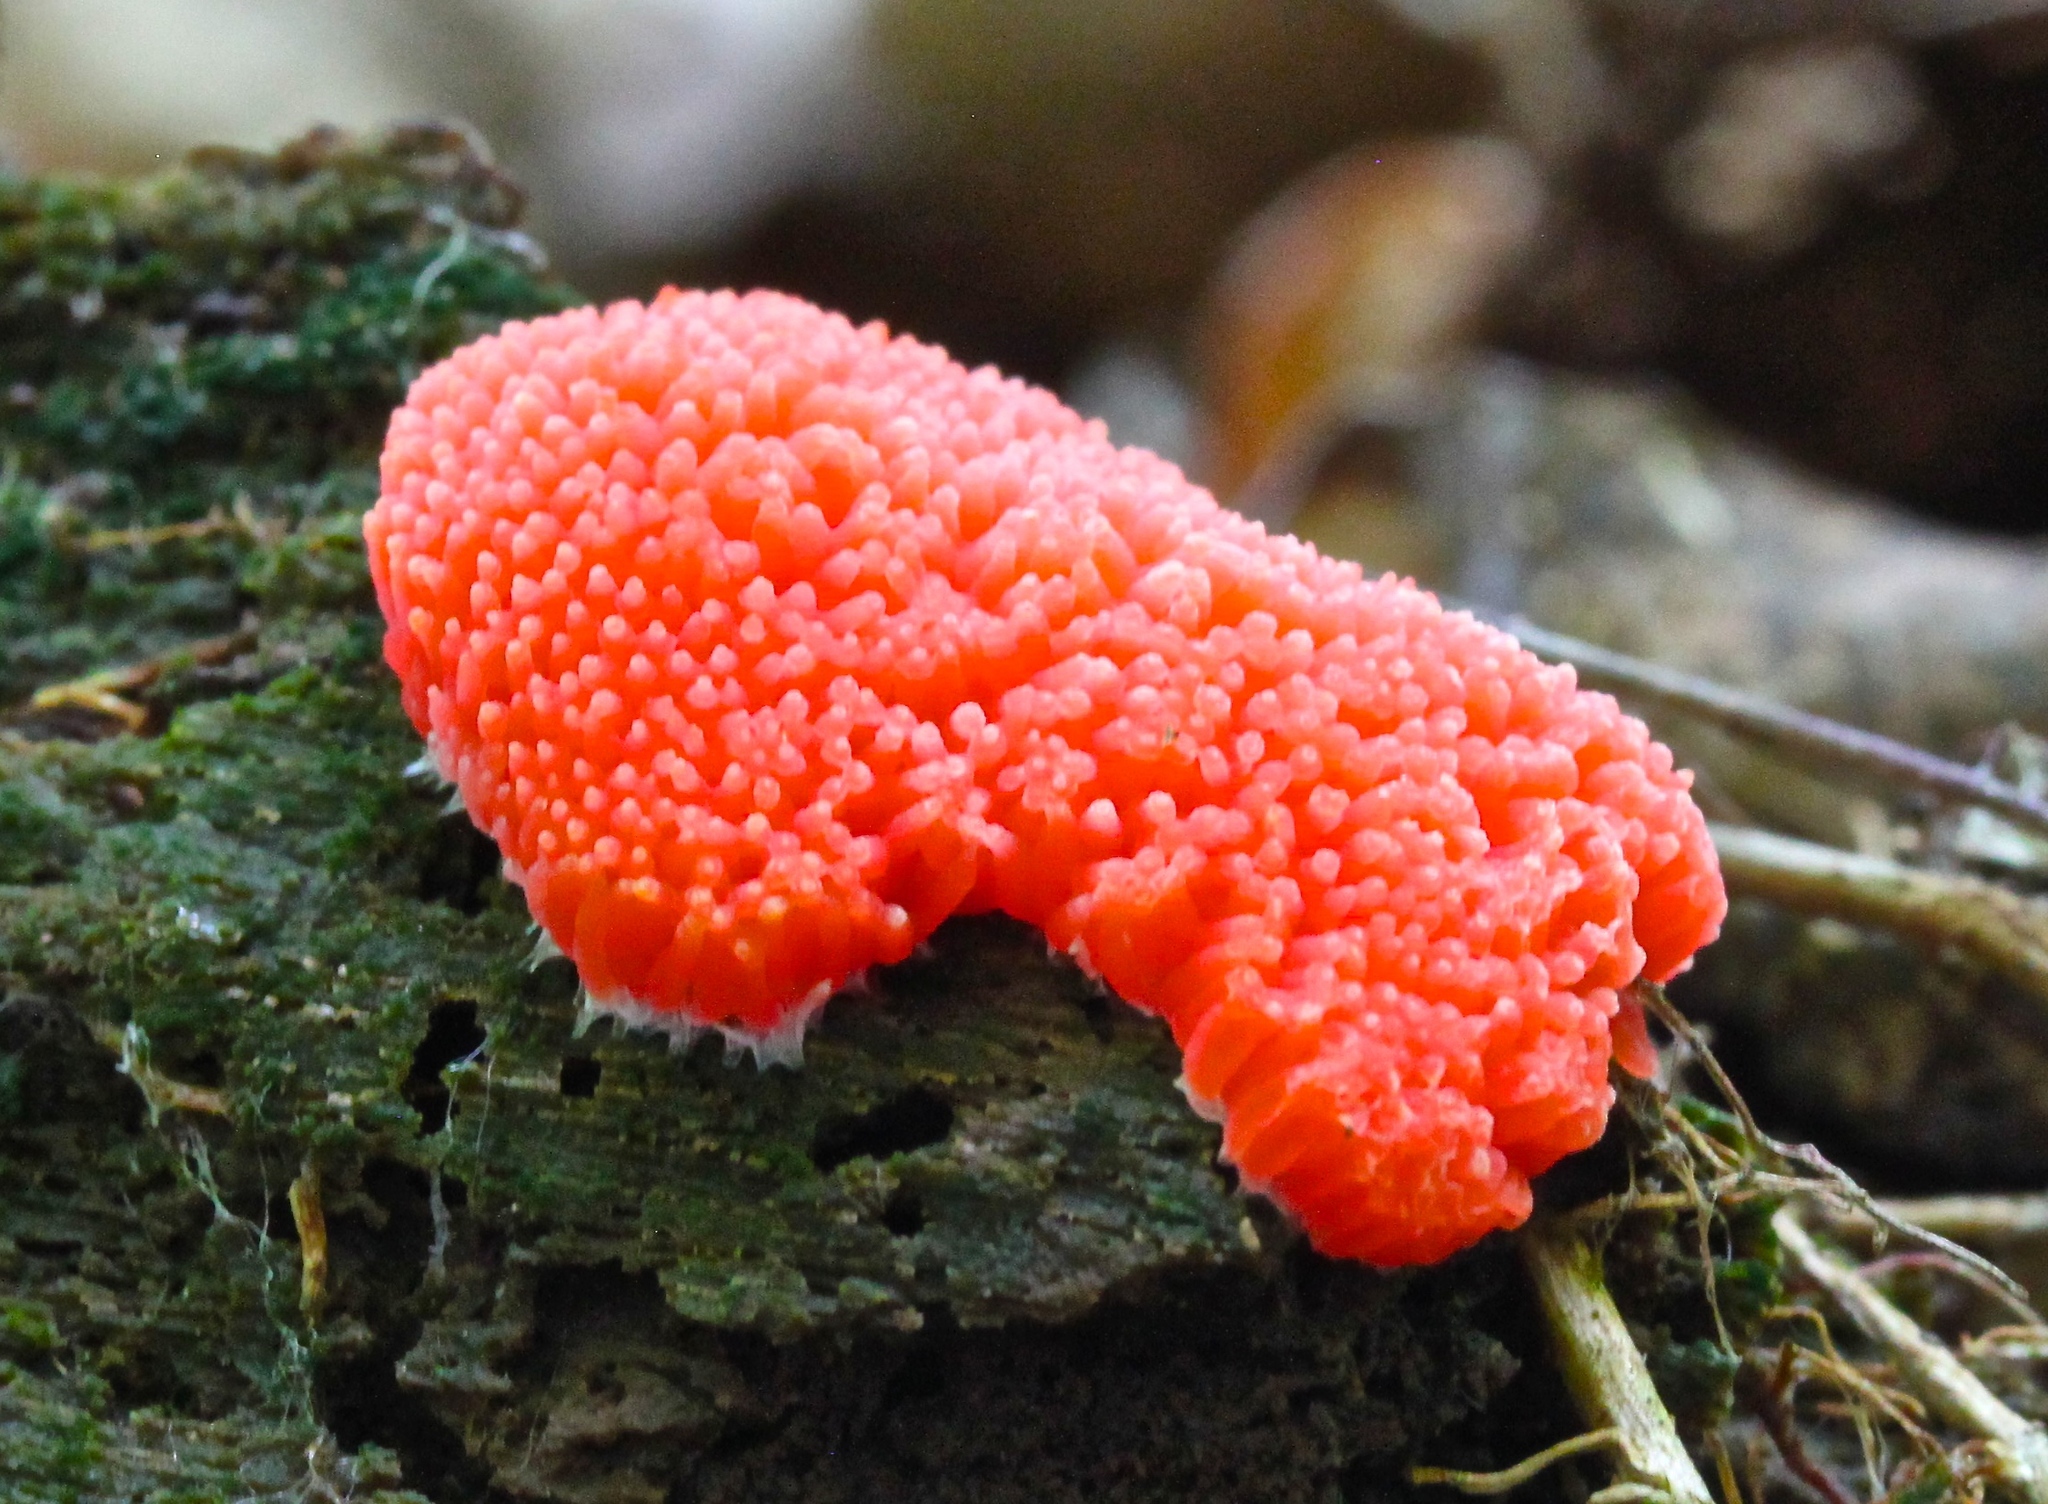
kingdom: Protozoa
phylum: Mycetozoa
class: Myxomycetes
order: Cribrariales
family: Tubiferaceae
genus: Tubifera
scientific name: Tubifera ferruginosa
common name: Red raspberry slime mold
